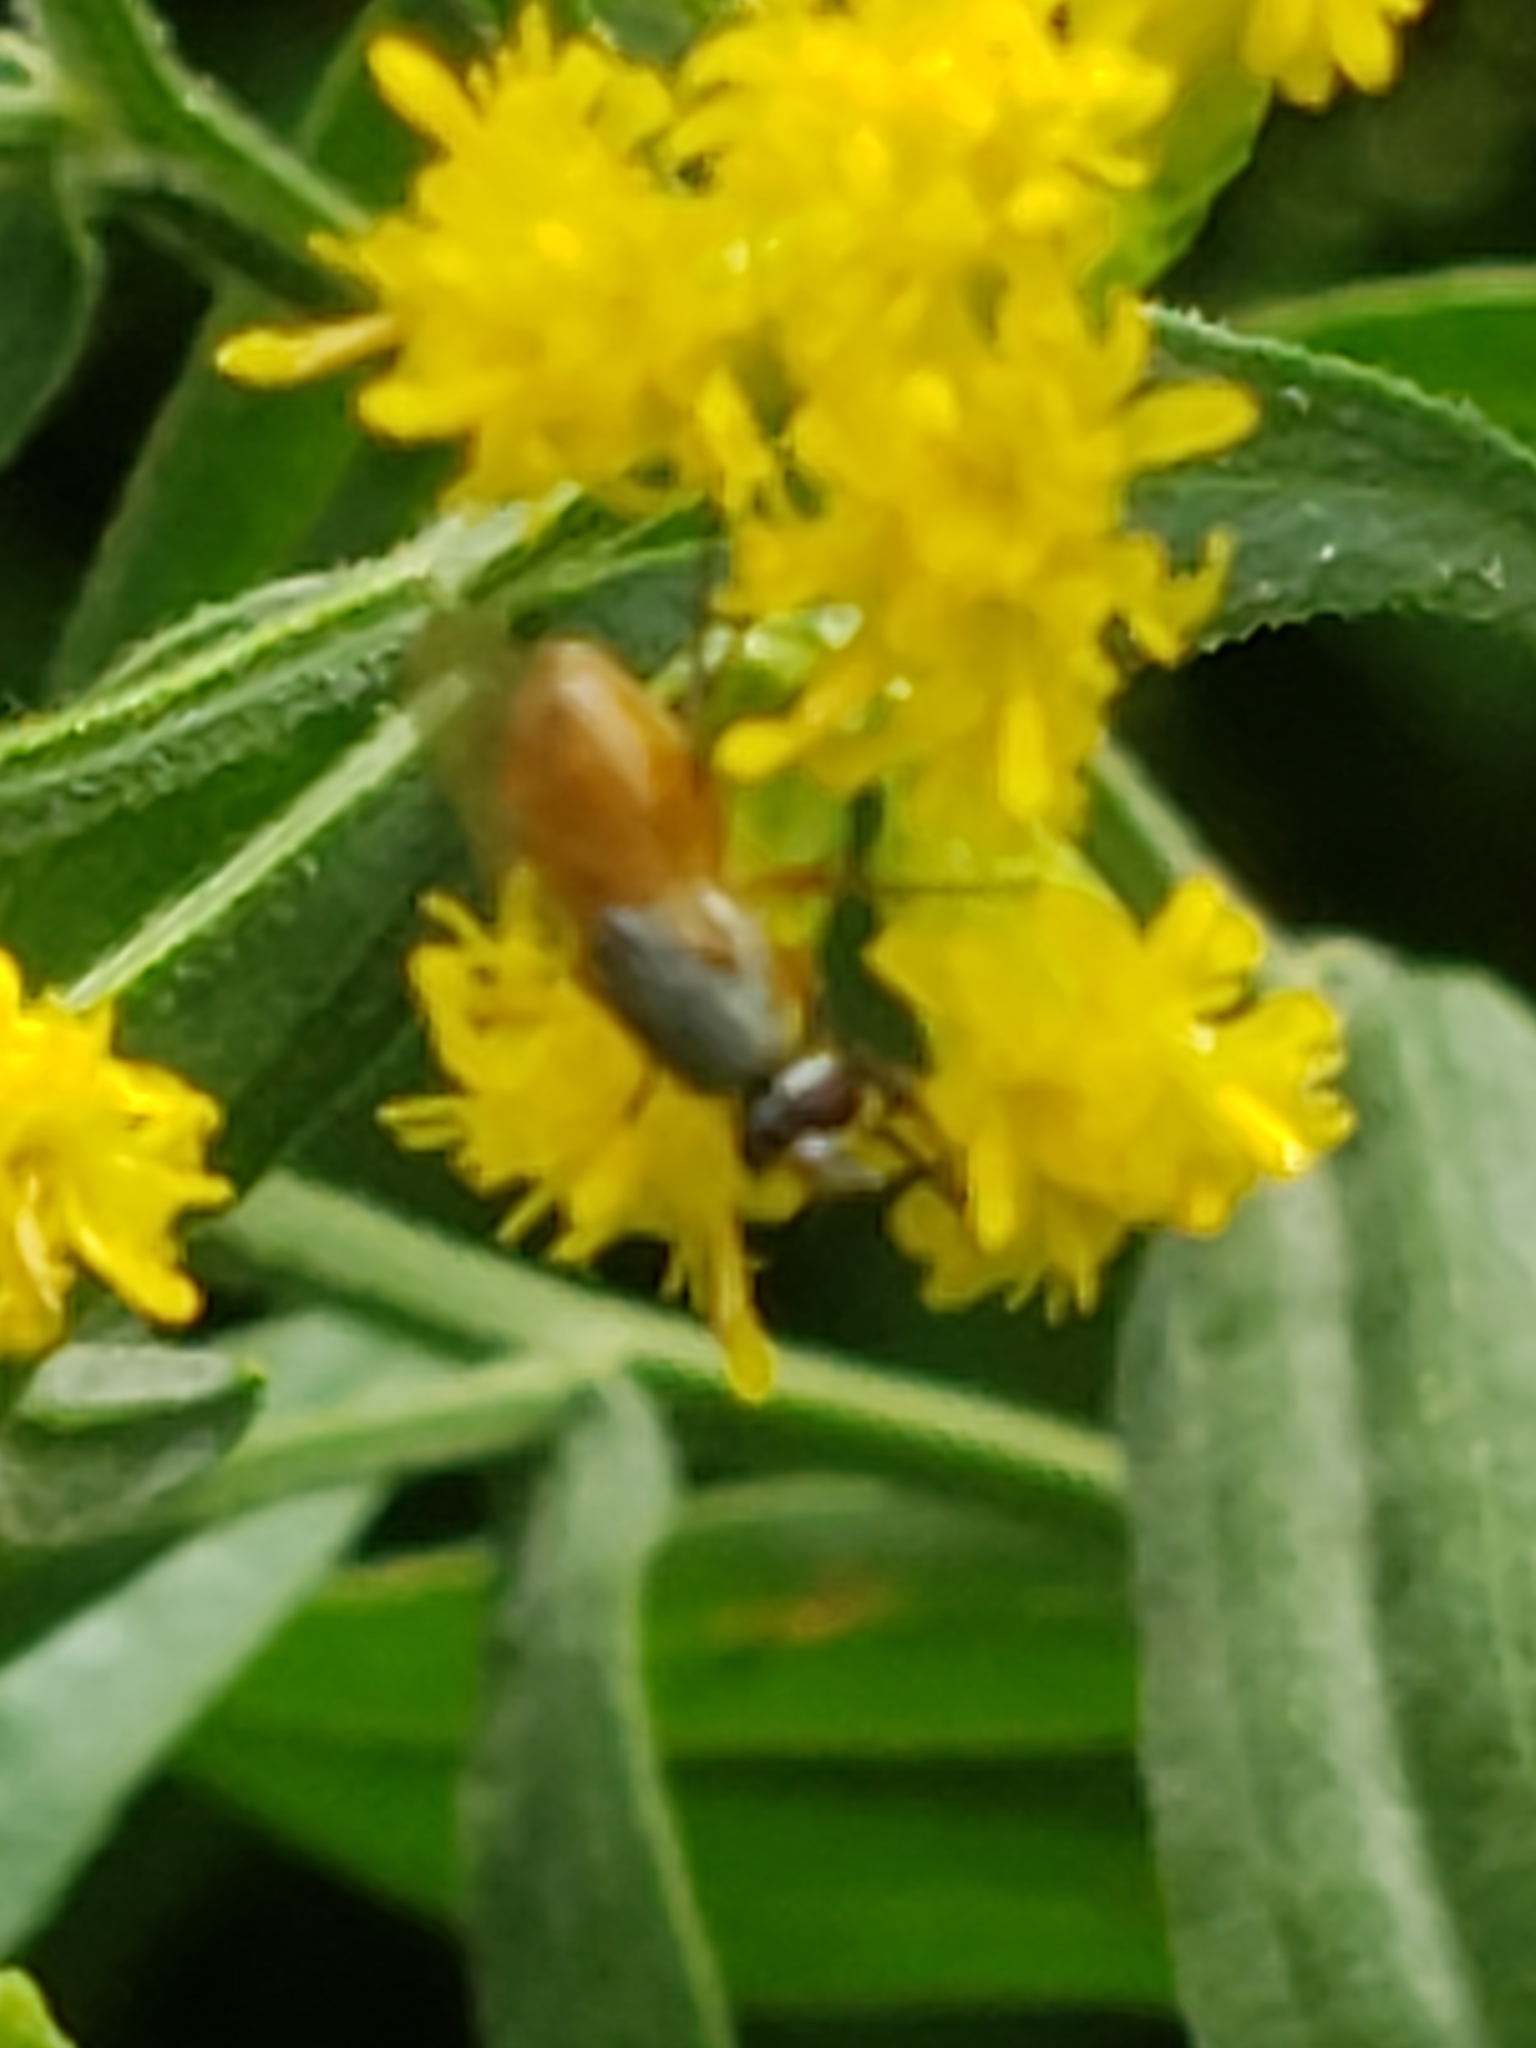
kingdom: Animalia
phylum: Arthropoda
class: Insecta
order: Diptera
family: Muscidae
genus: Atherigona
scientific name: Atherigona reversura
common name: Bermudagrass stem maggot
